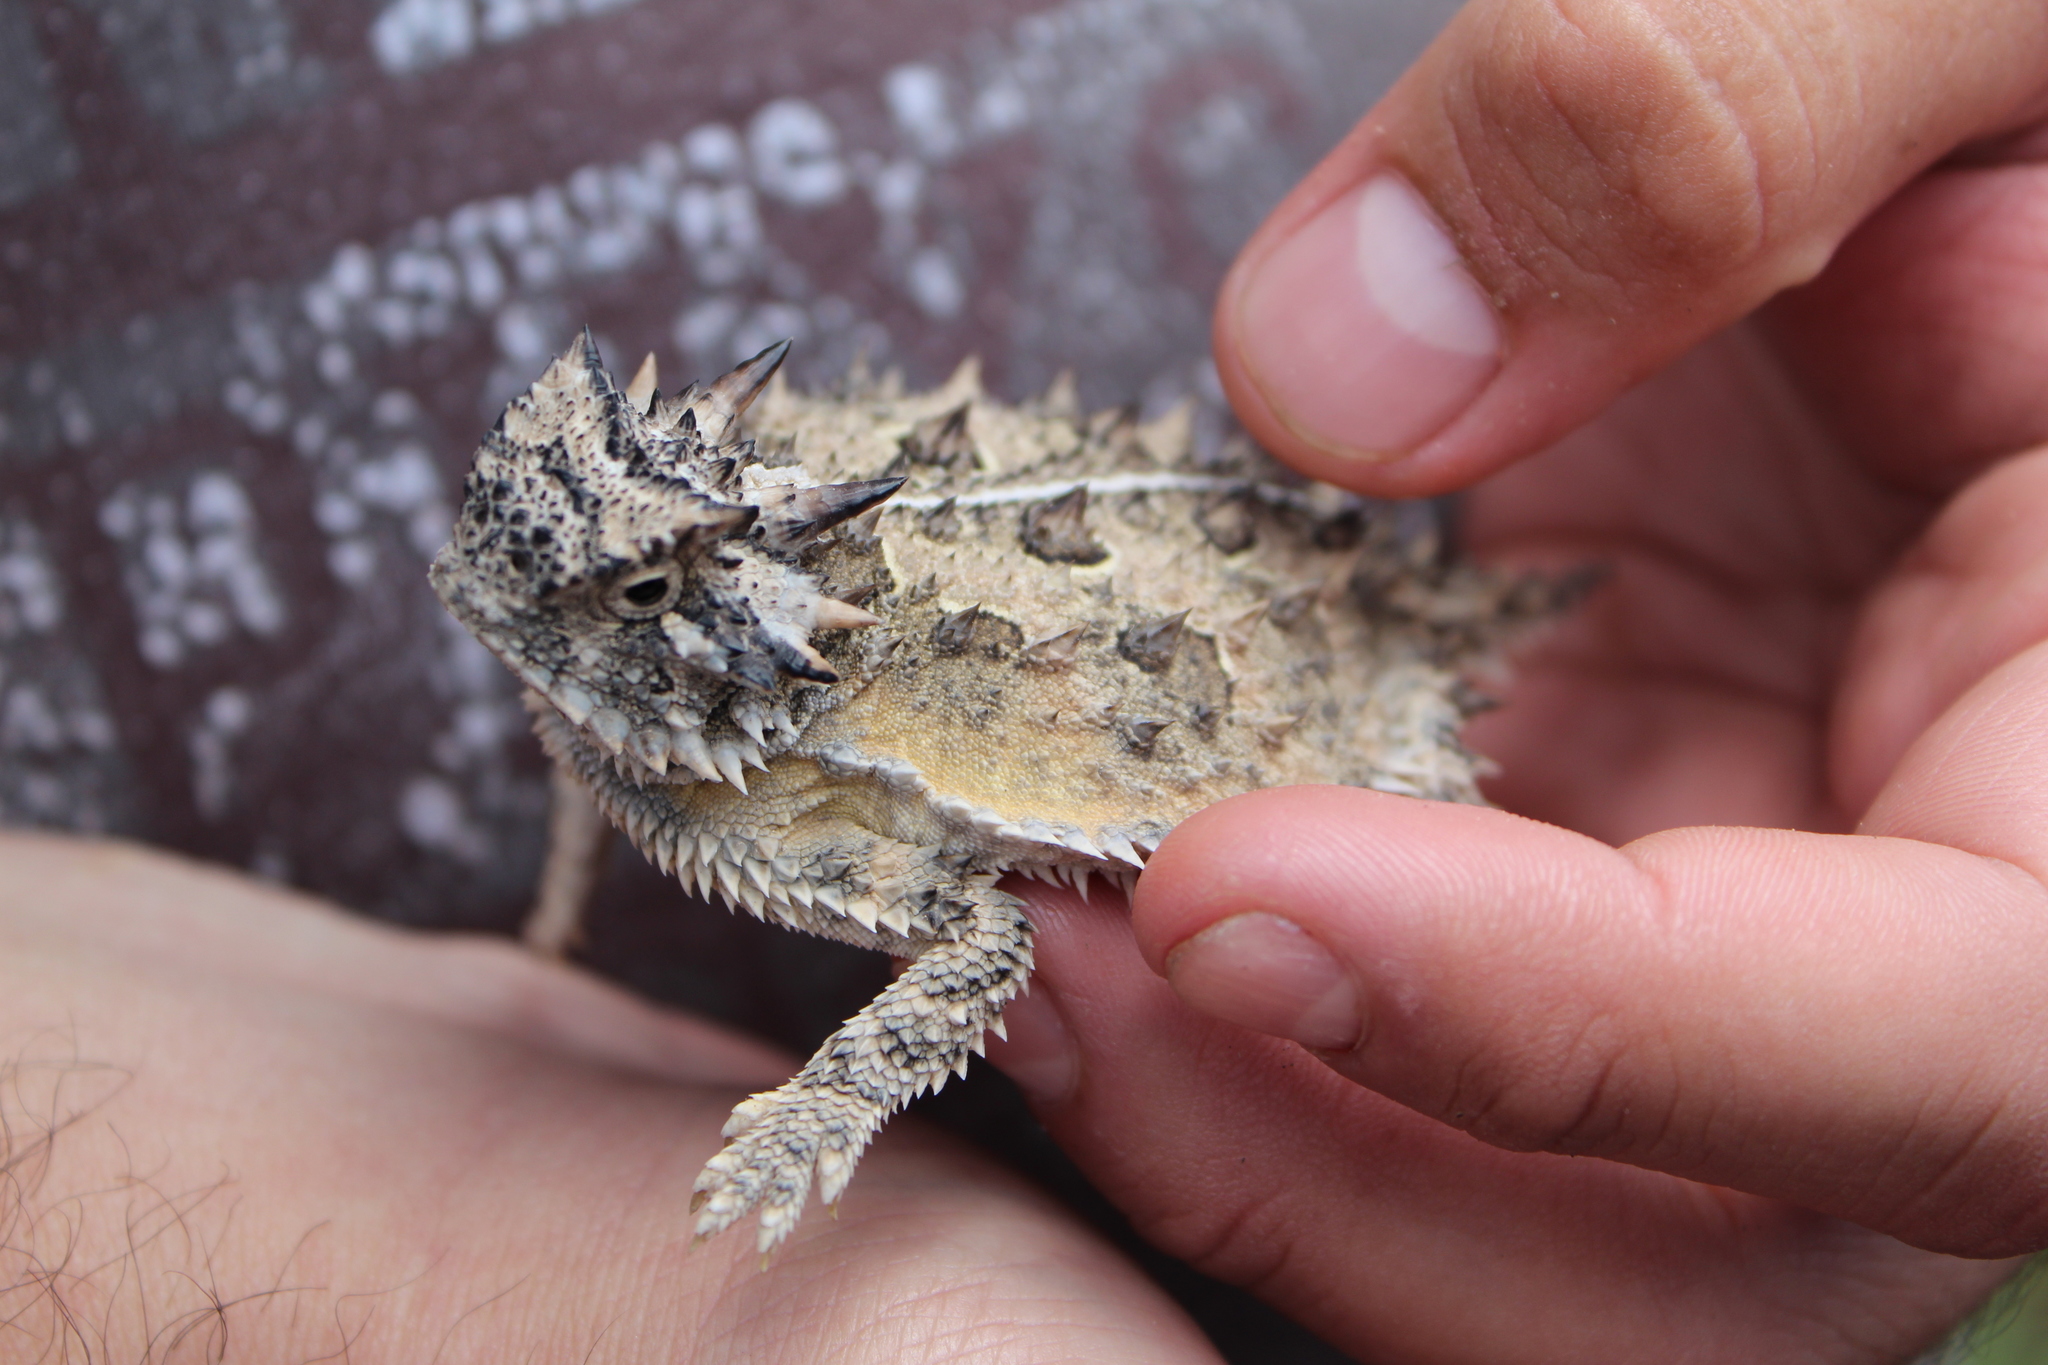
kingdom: Animalia
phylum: Chordata
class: Squamata
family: Phrynosomatidae
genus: Phrynosoma
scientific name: Phrynosoma cornutum
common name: Texas horned lizard
